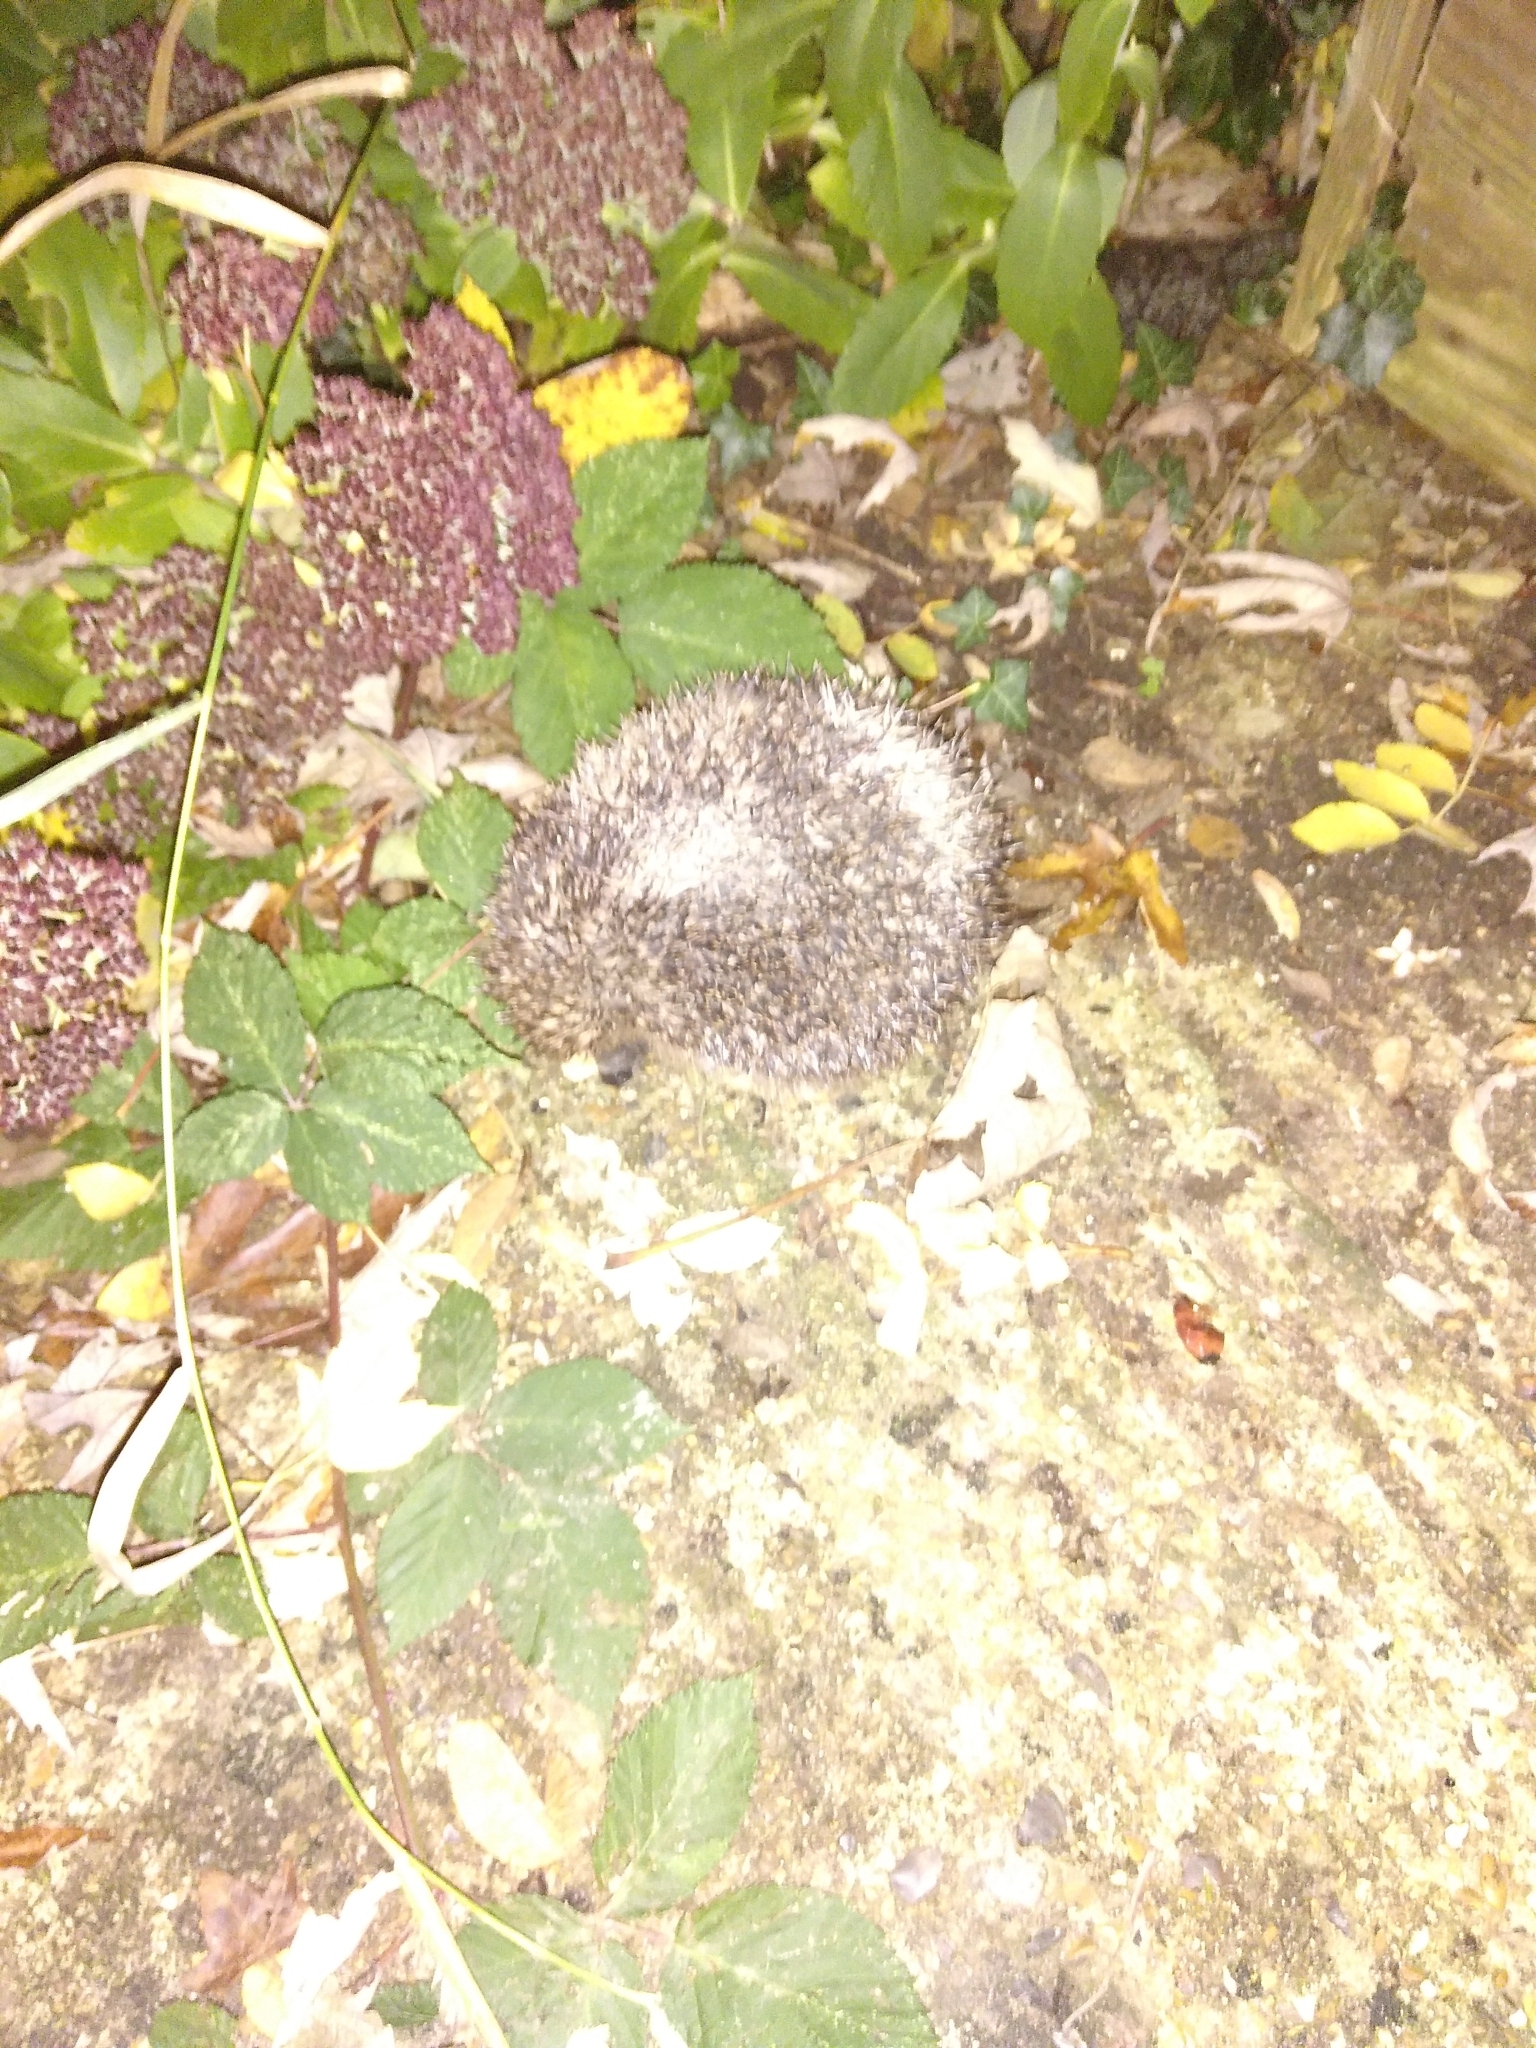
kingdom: Animalia
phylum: Chordata
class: Mammalia
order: Erinaceomorpha
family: Erinaceidae
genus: Erinaceus
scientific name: Erinaceus europaeus
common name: West european hedgehog
